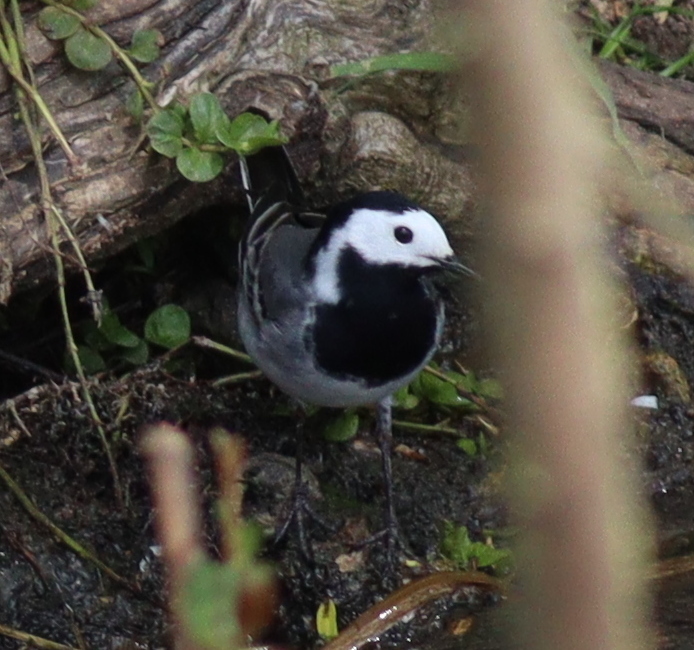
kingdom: Animalia
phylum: Chordata
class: Aves
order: Passeriformes
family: Motacillidae
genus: Motacilla
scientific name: Motacilla alba
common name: White wagtail
